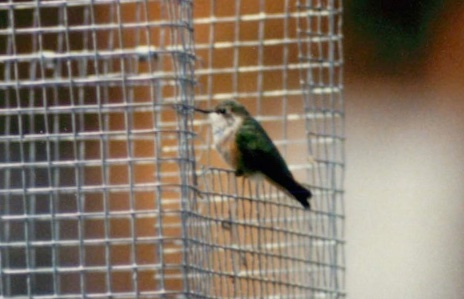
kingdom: Animalia
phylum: Chordata
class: Aves
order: Apodiformes
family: Trochilidae
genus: Selasphorus
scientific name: Selasphorus platycercus
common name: Broad-tailed hummingbird
